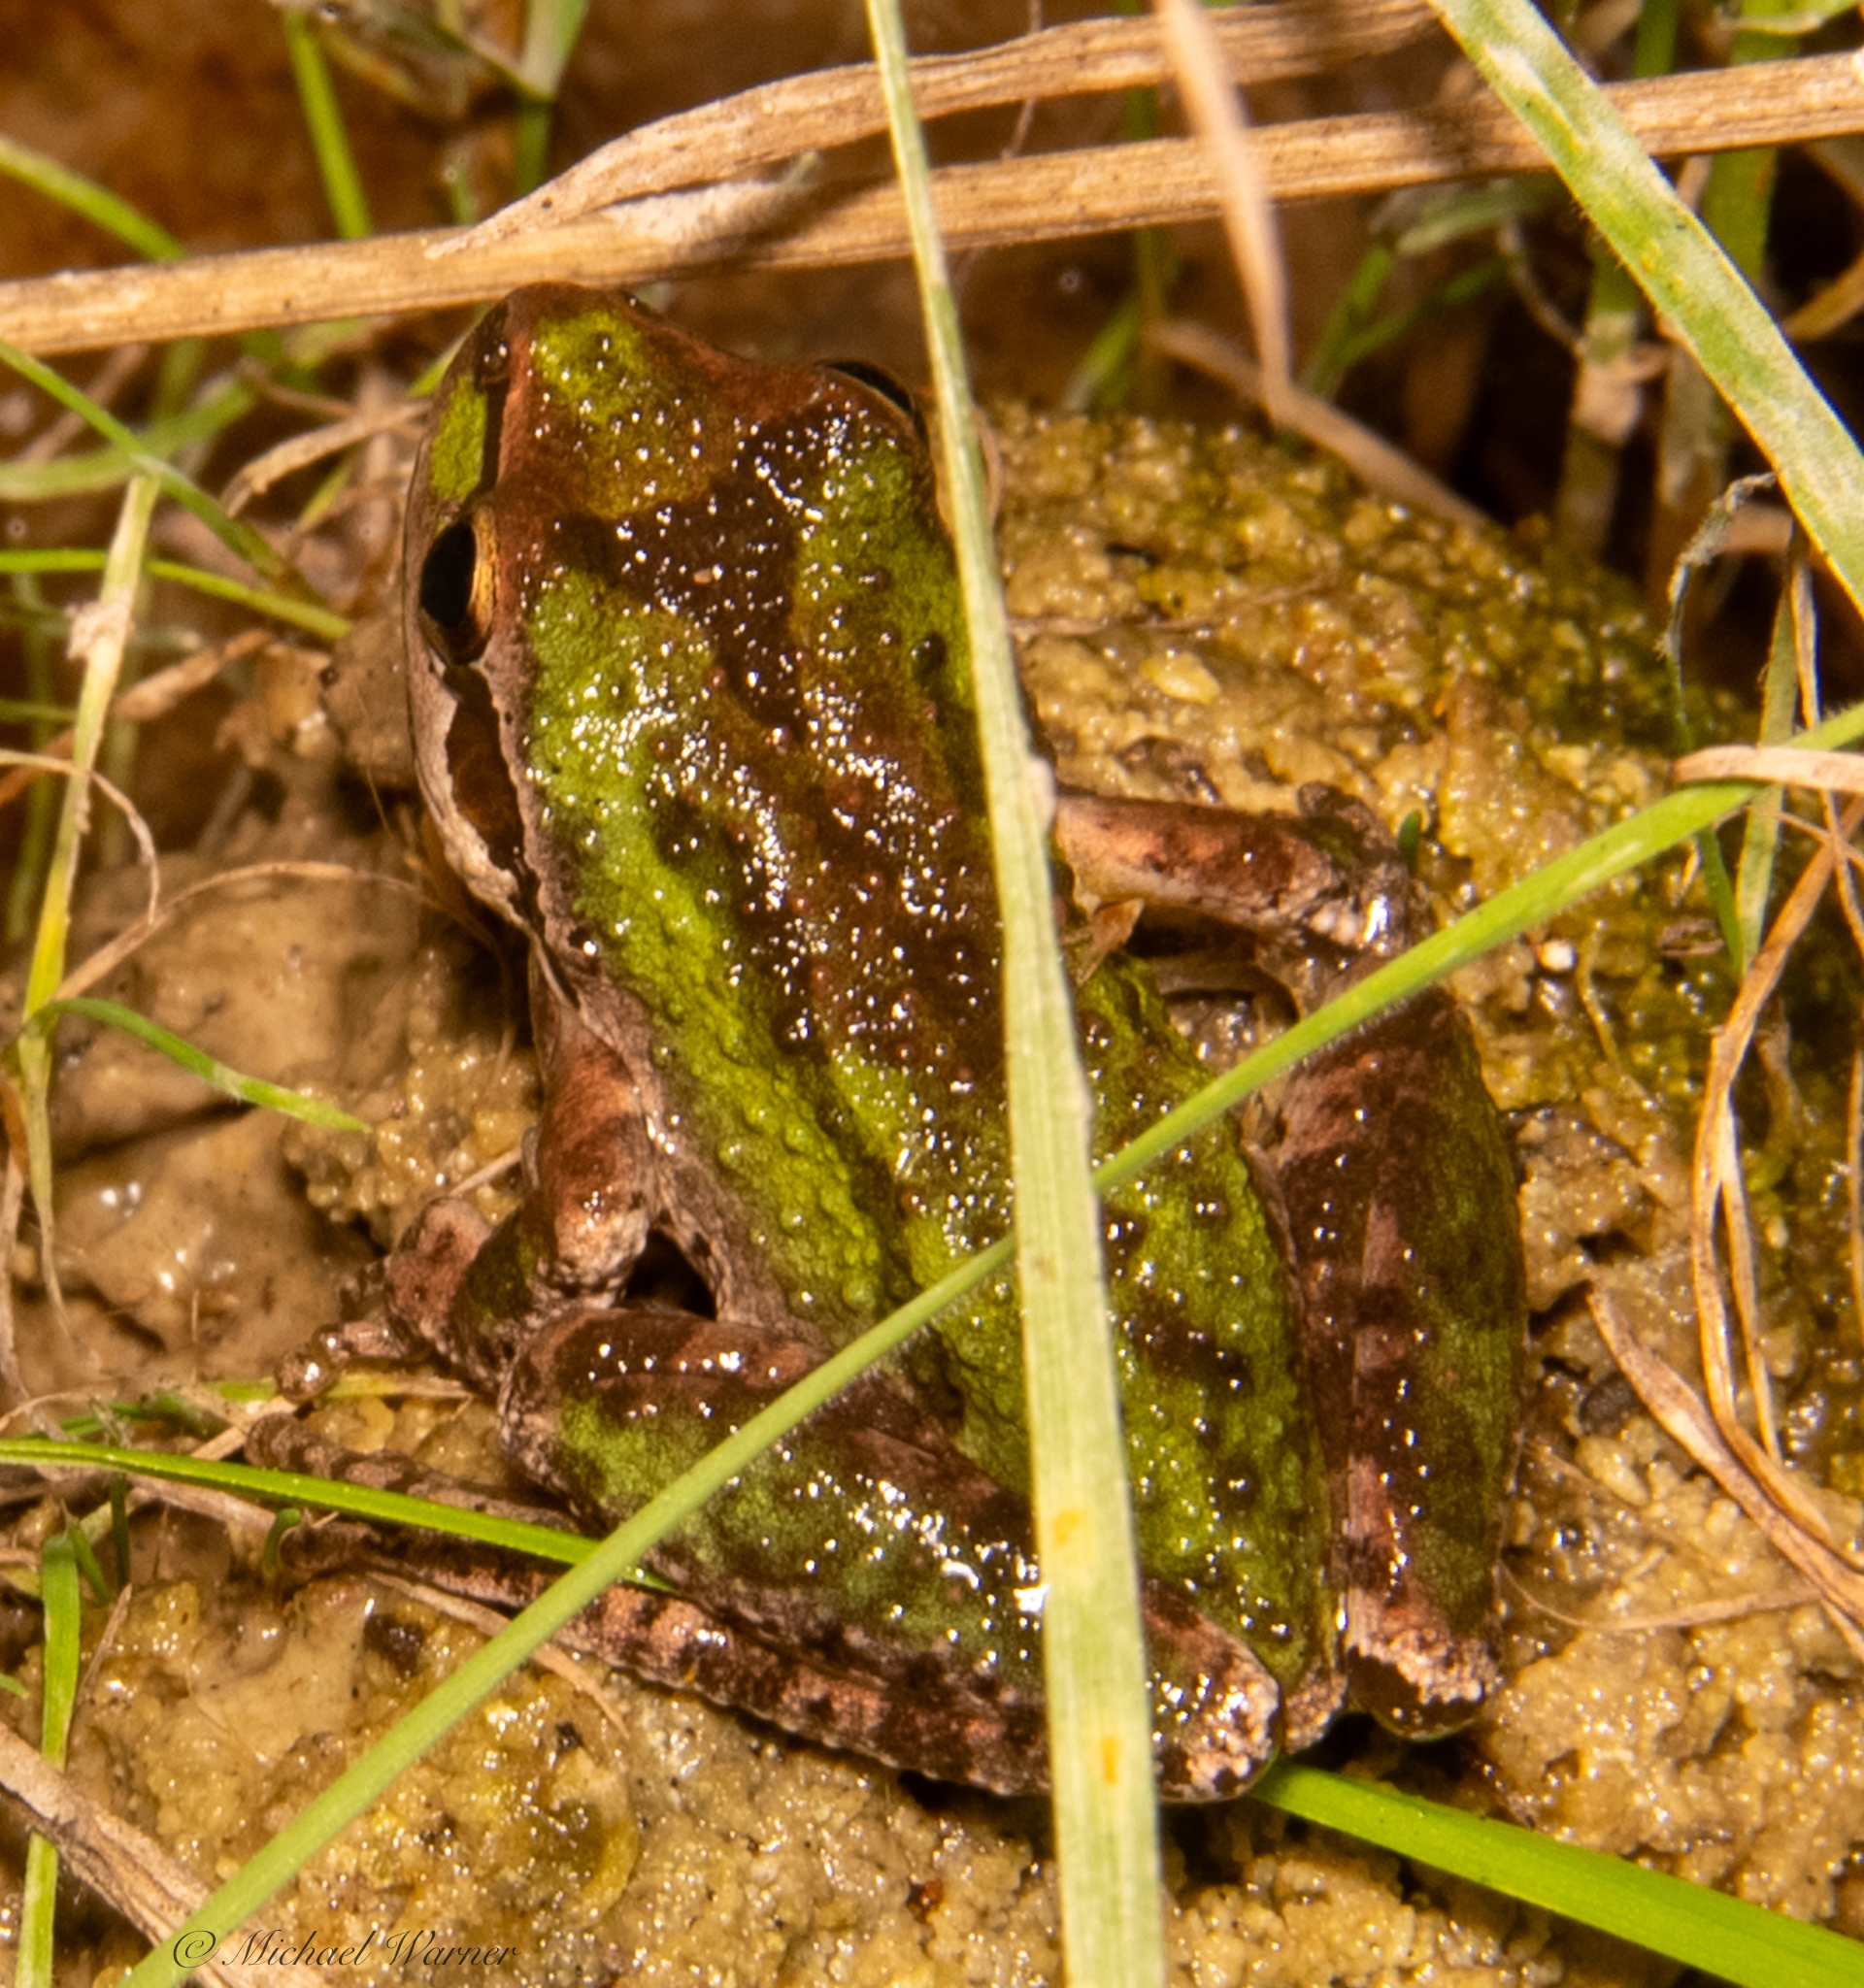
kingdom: Animalia
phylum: Chordata
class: Amphibia
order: Anura
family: Hylidae
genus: Pseudacris
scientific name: Pseudacris regilla
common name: Pacific chorus frog
